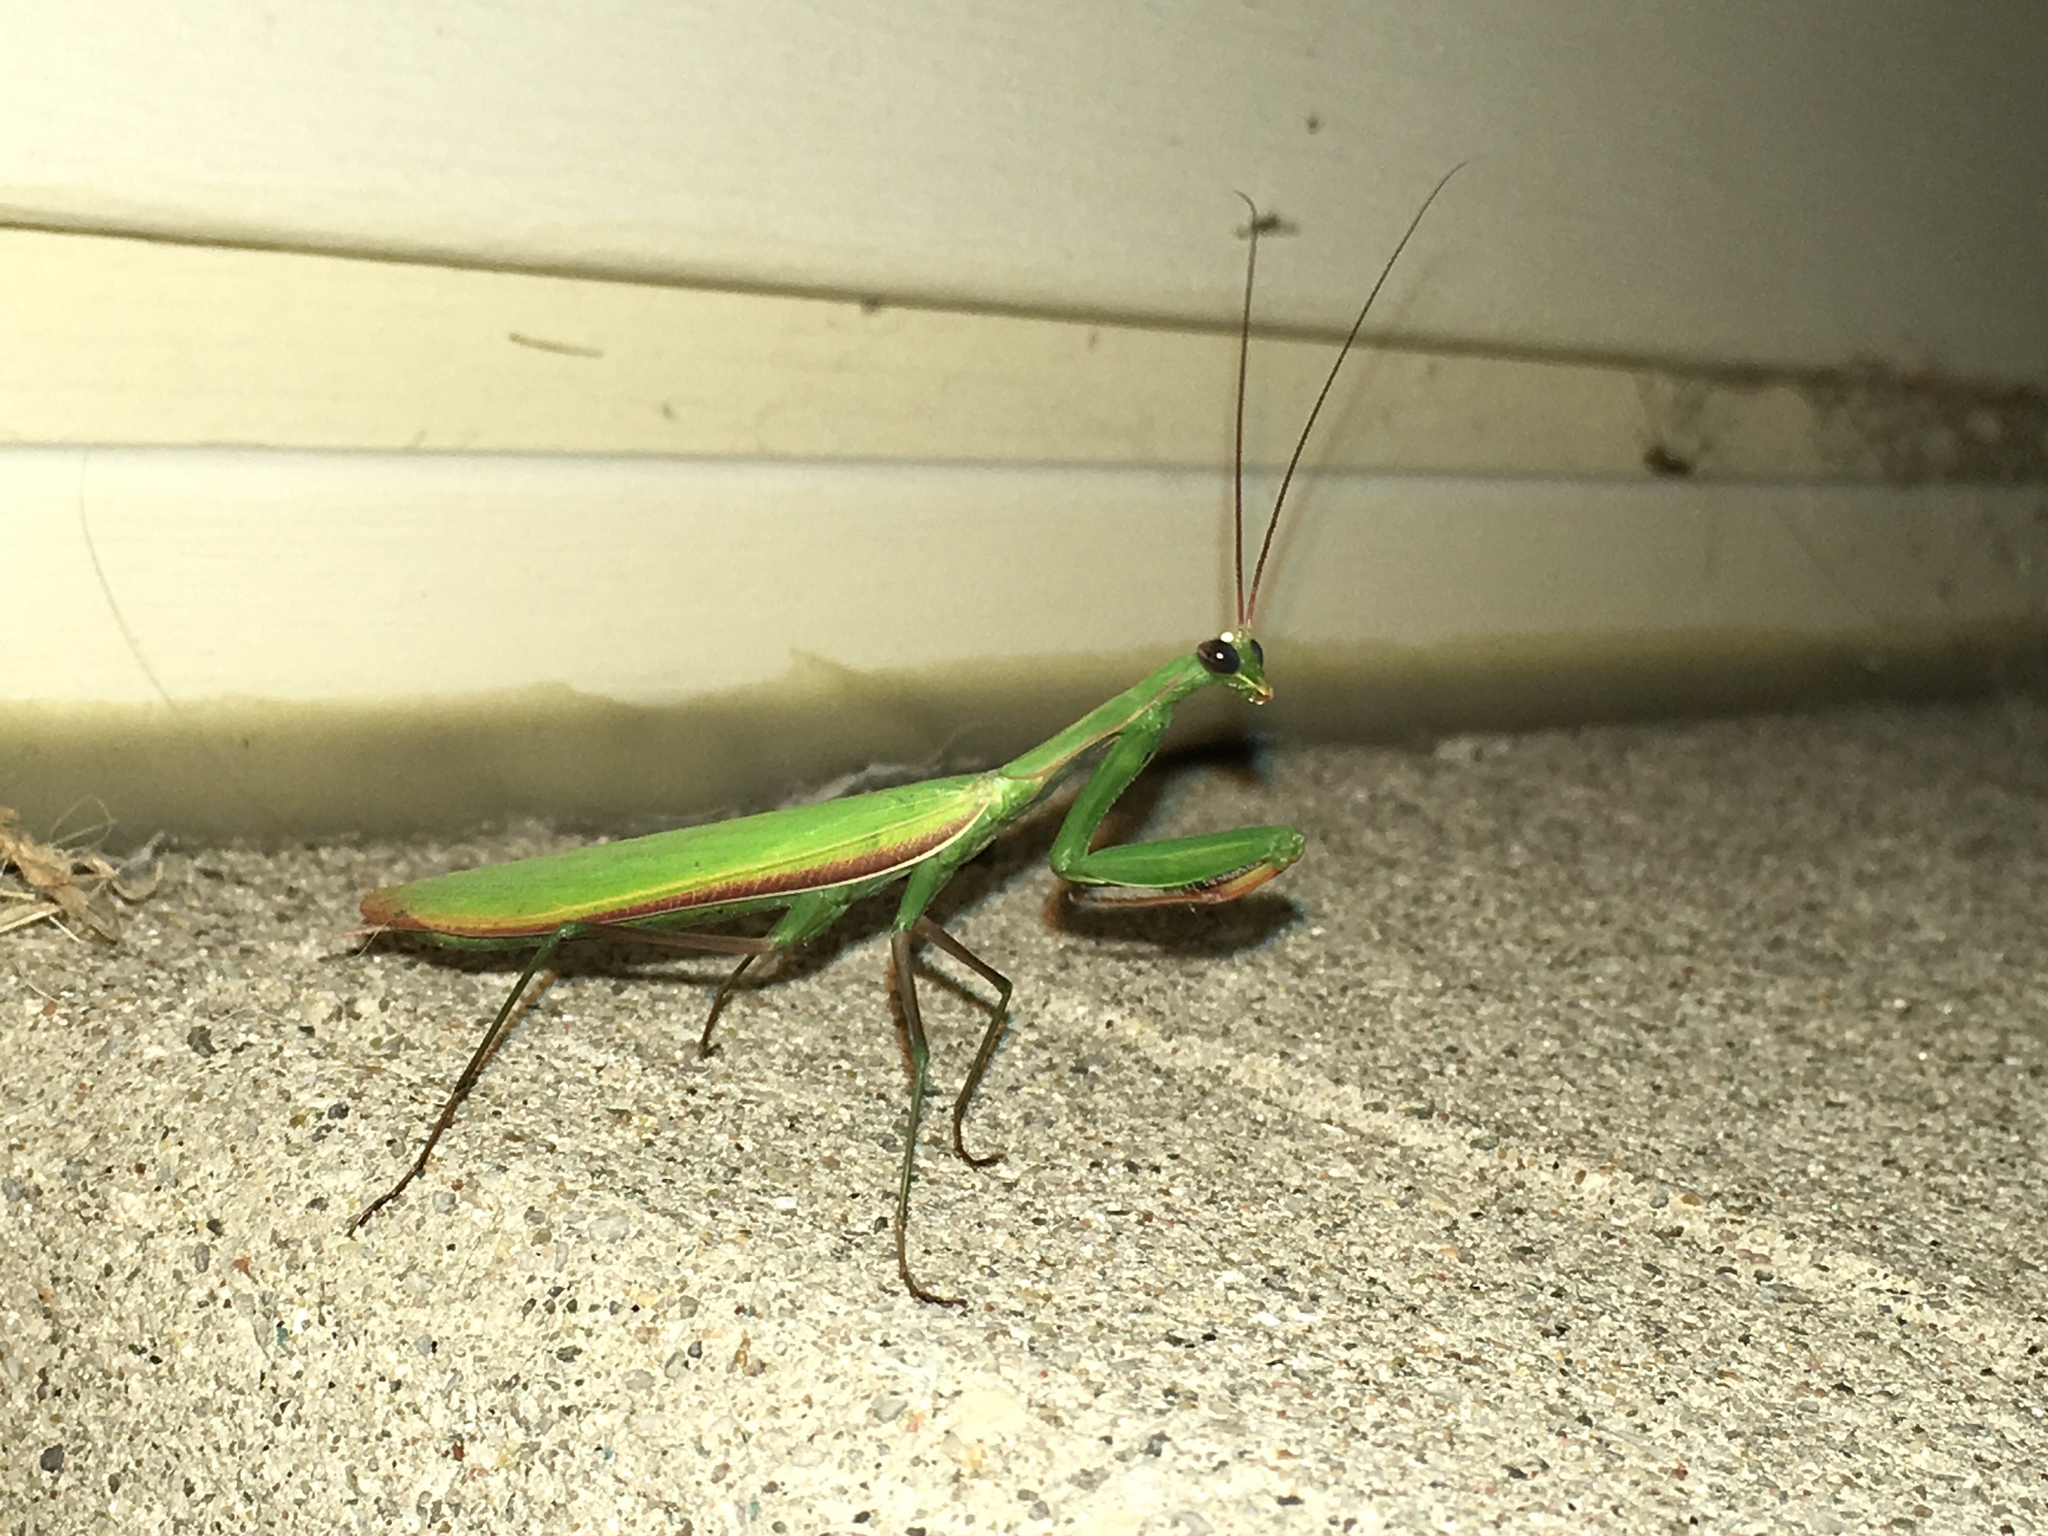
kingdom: Animalia
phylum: Arthropoda
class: Insecta
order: Mantodea
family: Mantidae
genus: Mantis
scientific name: Mantis religiosa
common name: Praying mantis
